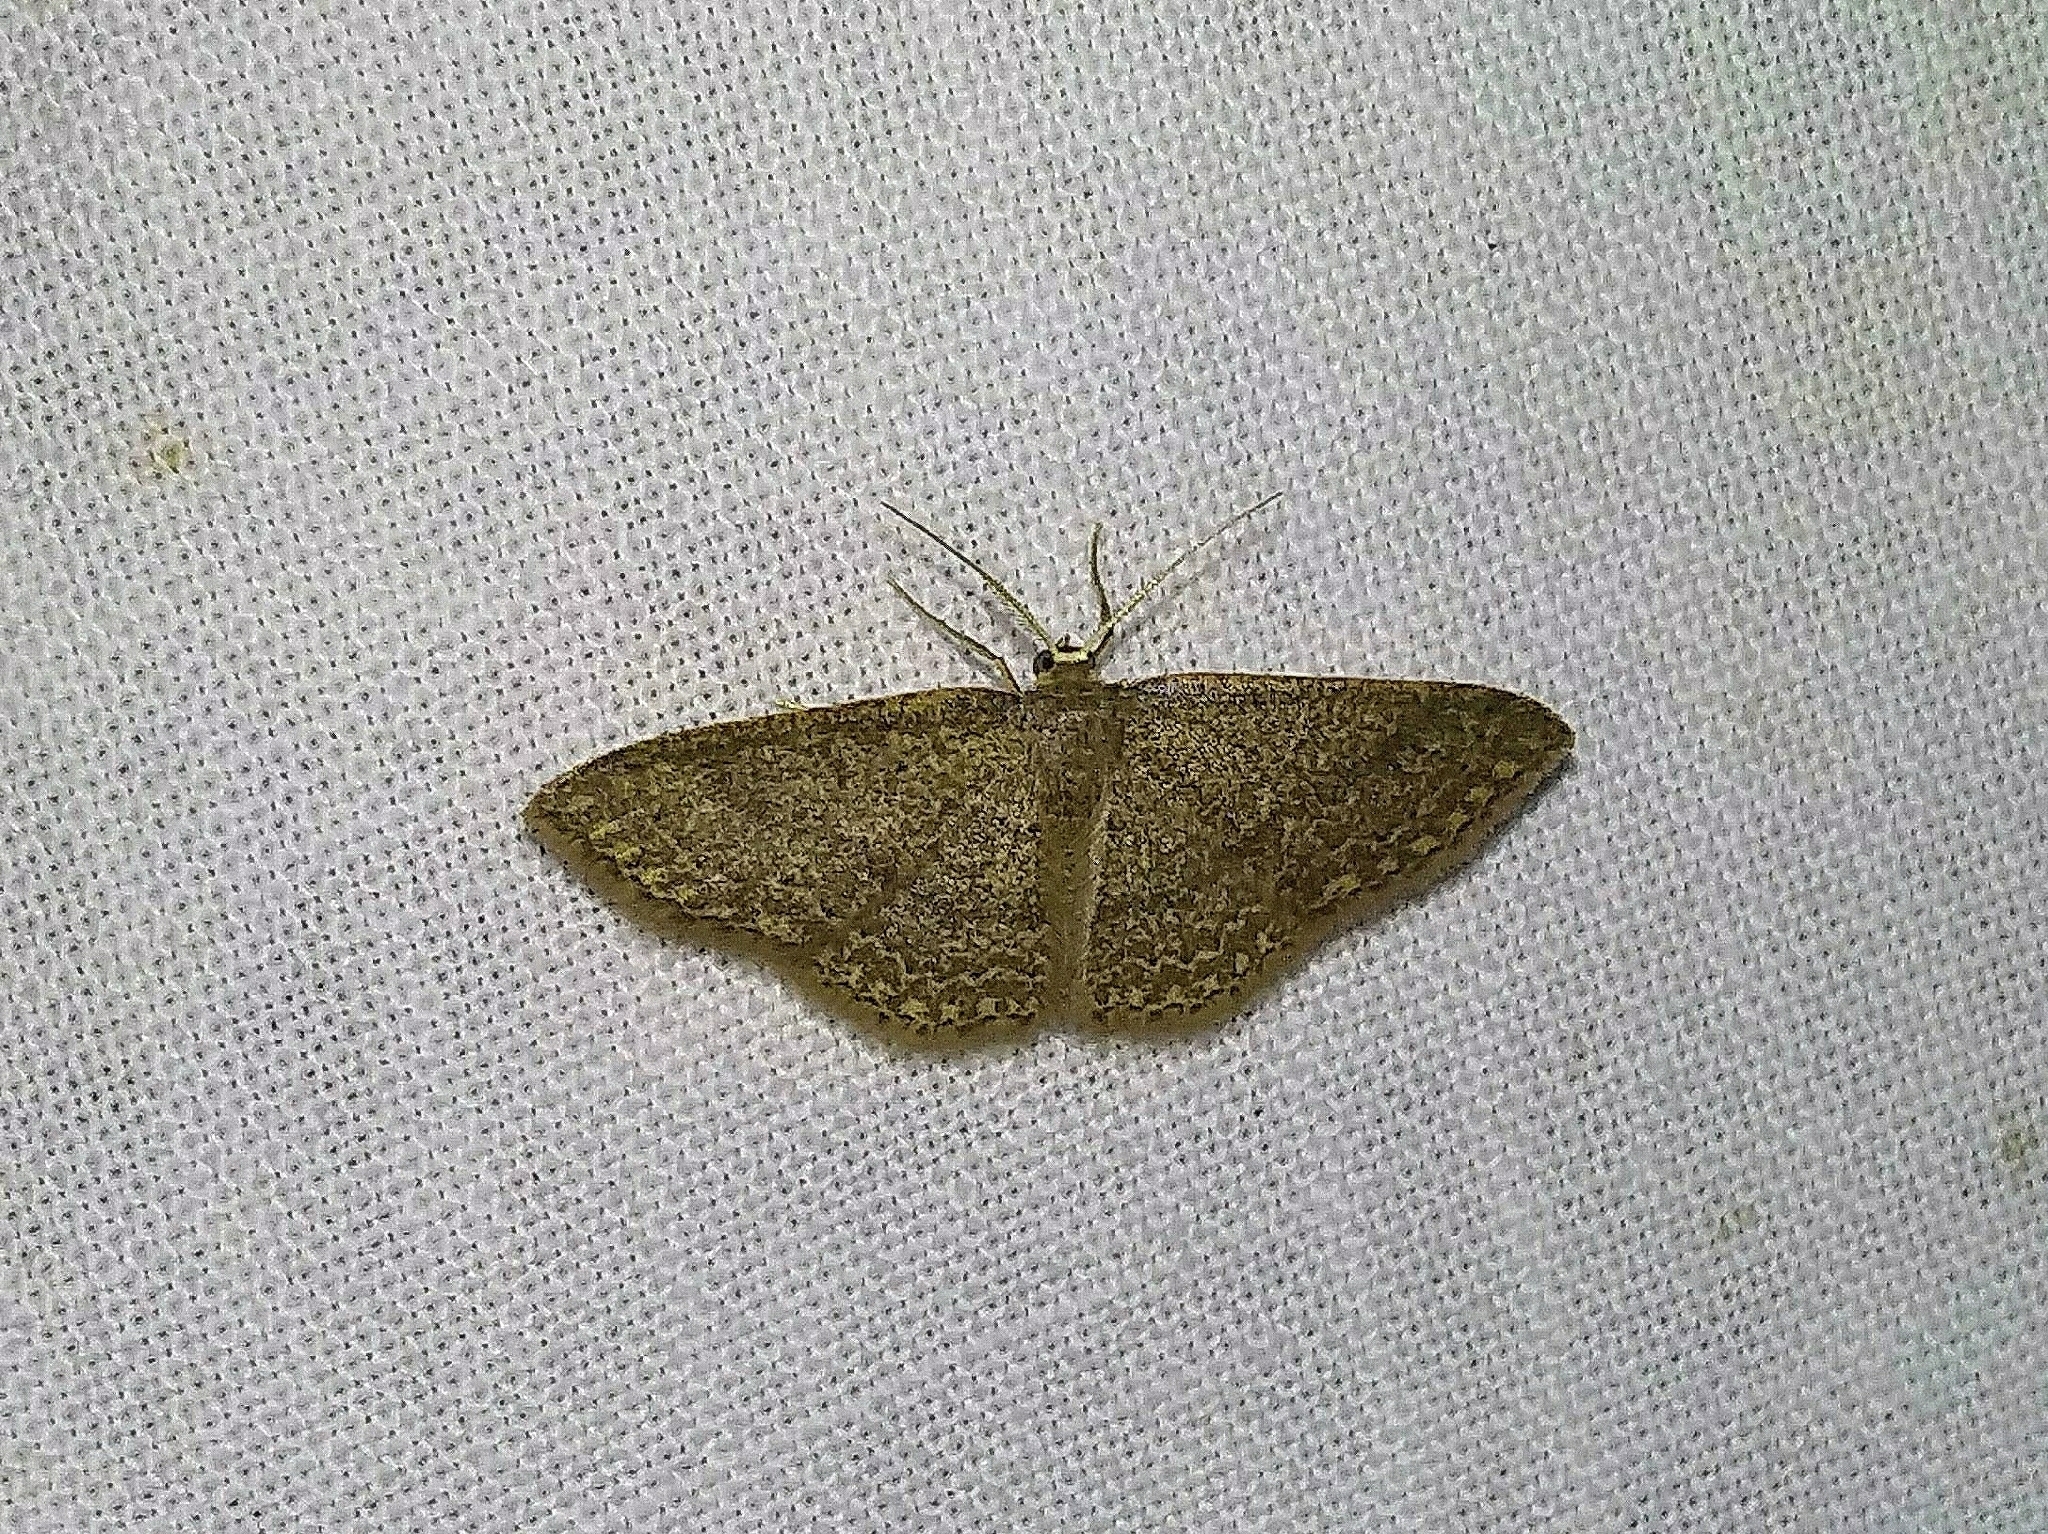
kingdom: Animalia
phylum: Arthropoda
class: Insecta
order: Lepidoptera
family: Geometridae
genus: Pleuroprucha
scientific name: Pleuroprucha insulsaria
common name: Common tan wave
